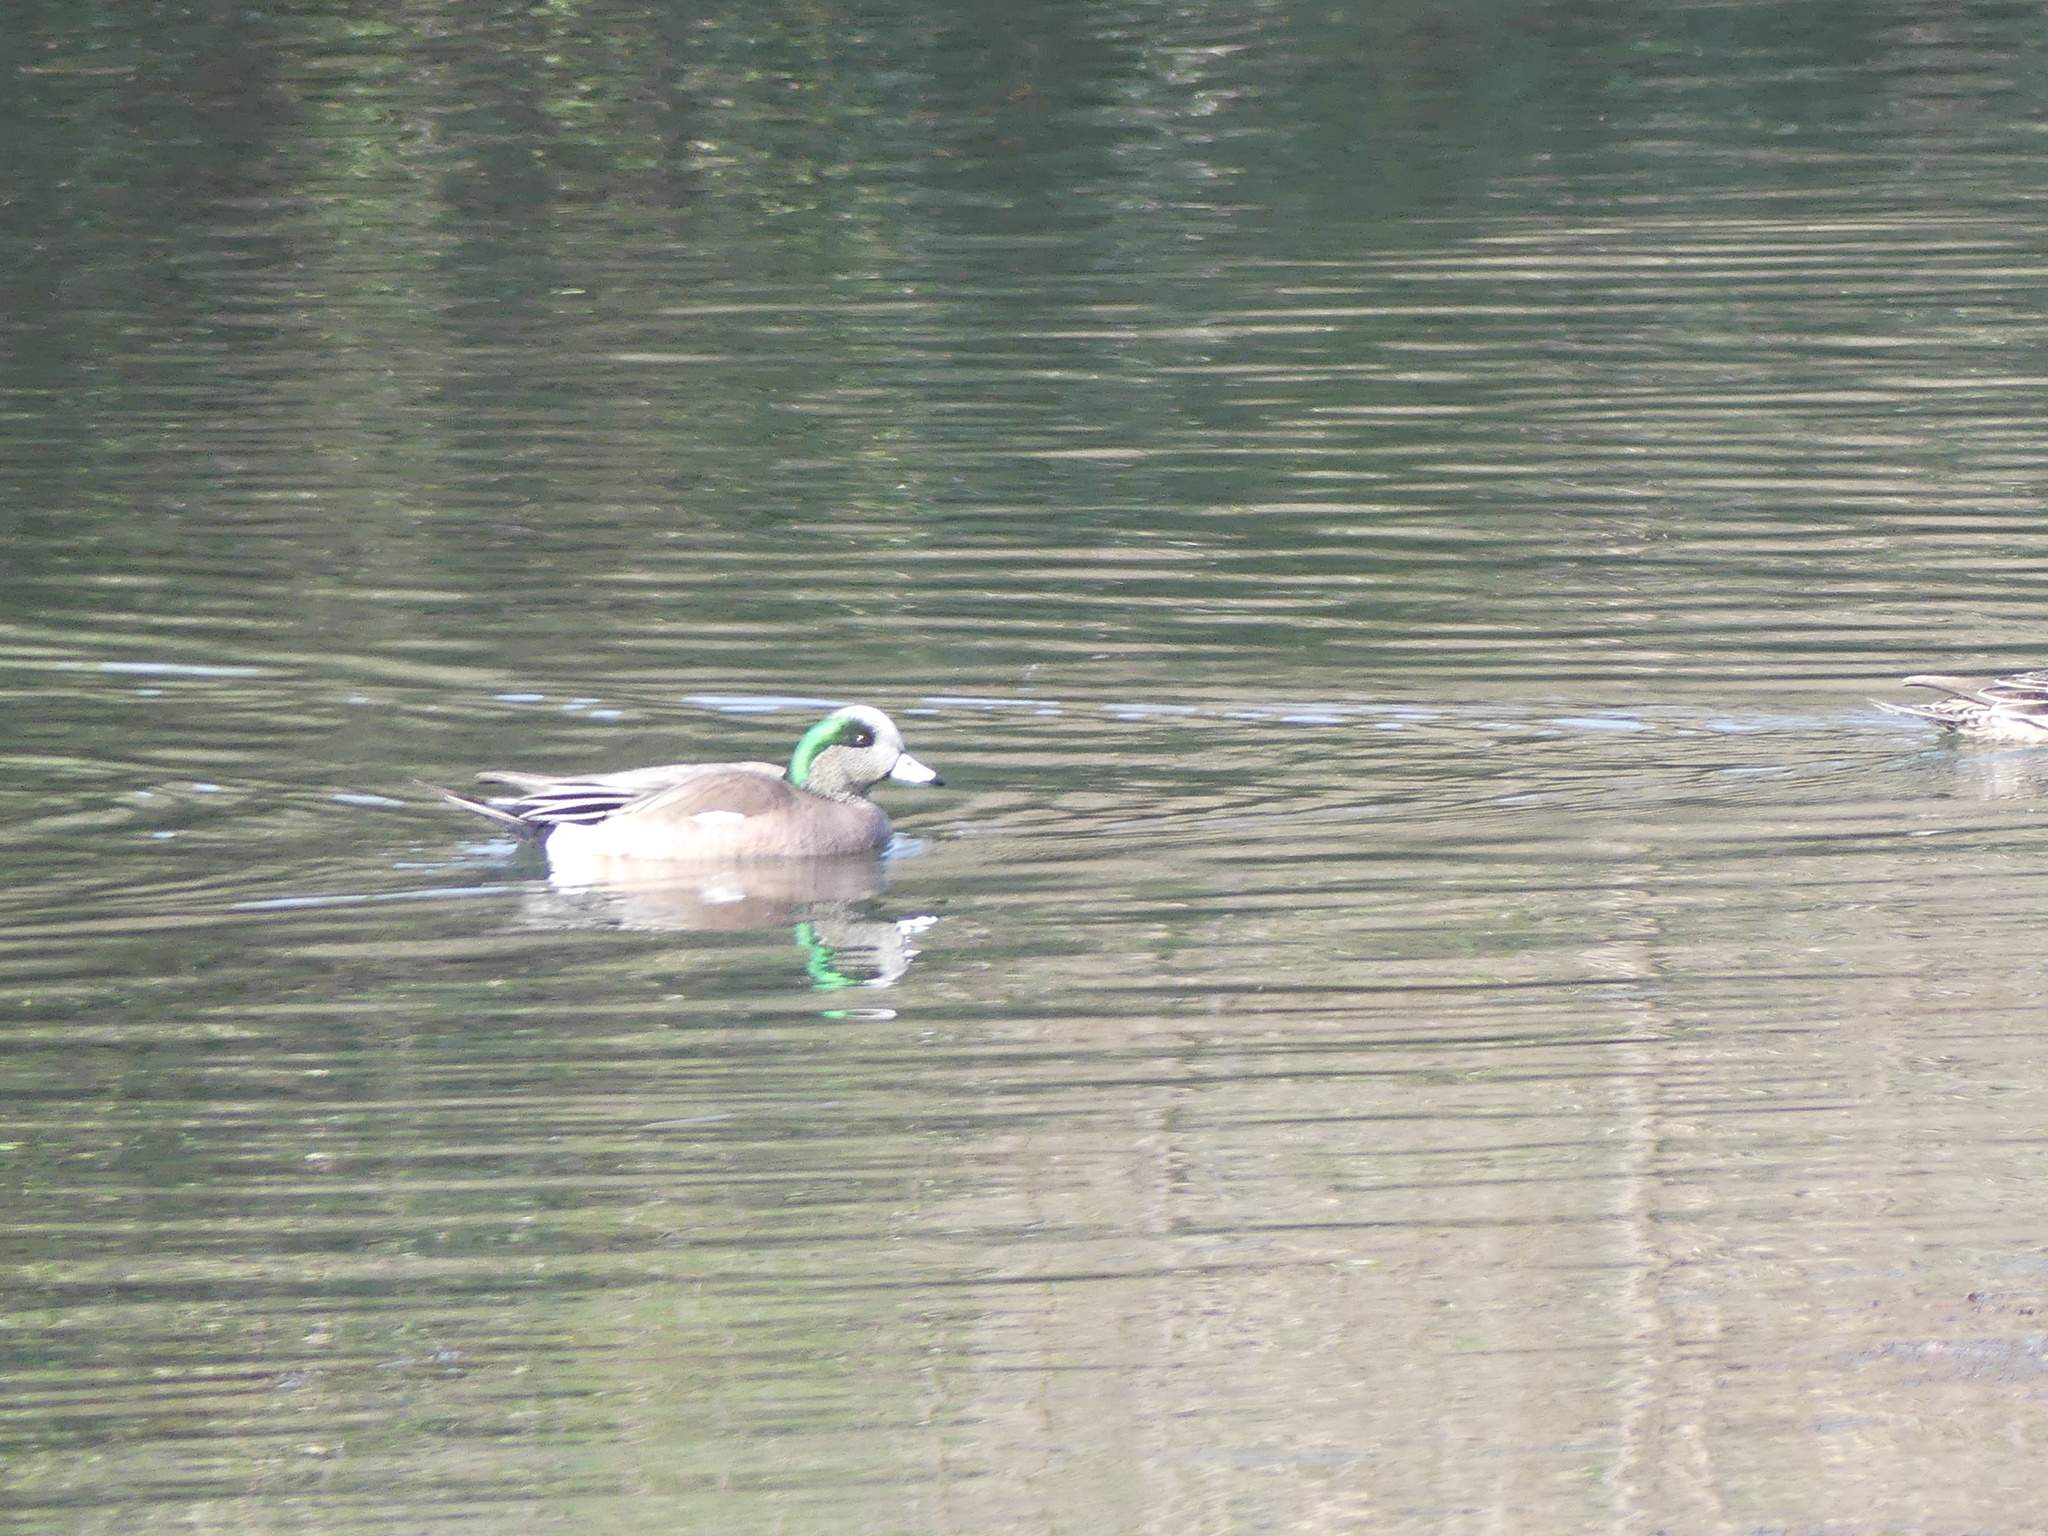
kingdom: Animalia
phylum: Chordata
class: Aves
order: Anseriformes
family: Anatidae
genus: Mareca
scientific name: Mareca americana
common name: American wigeon
